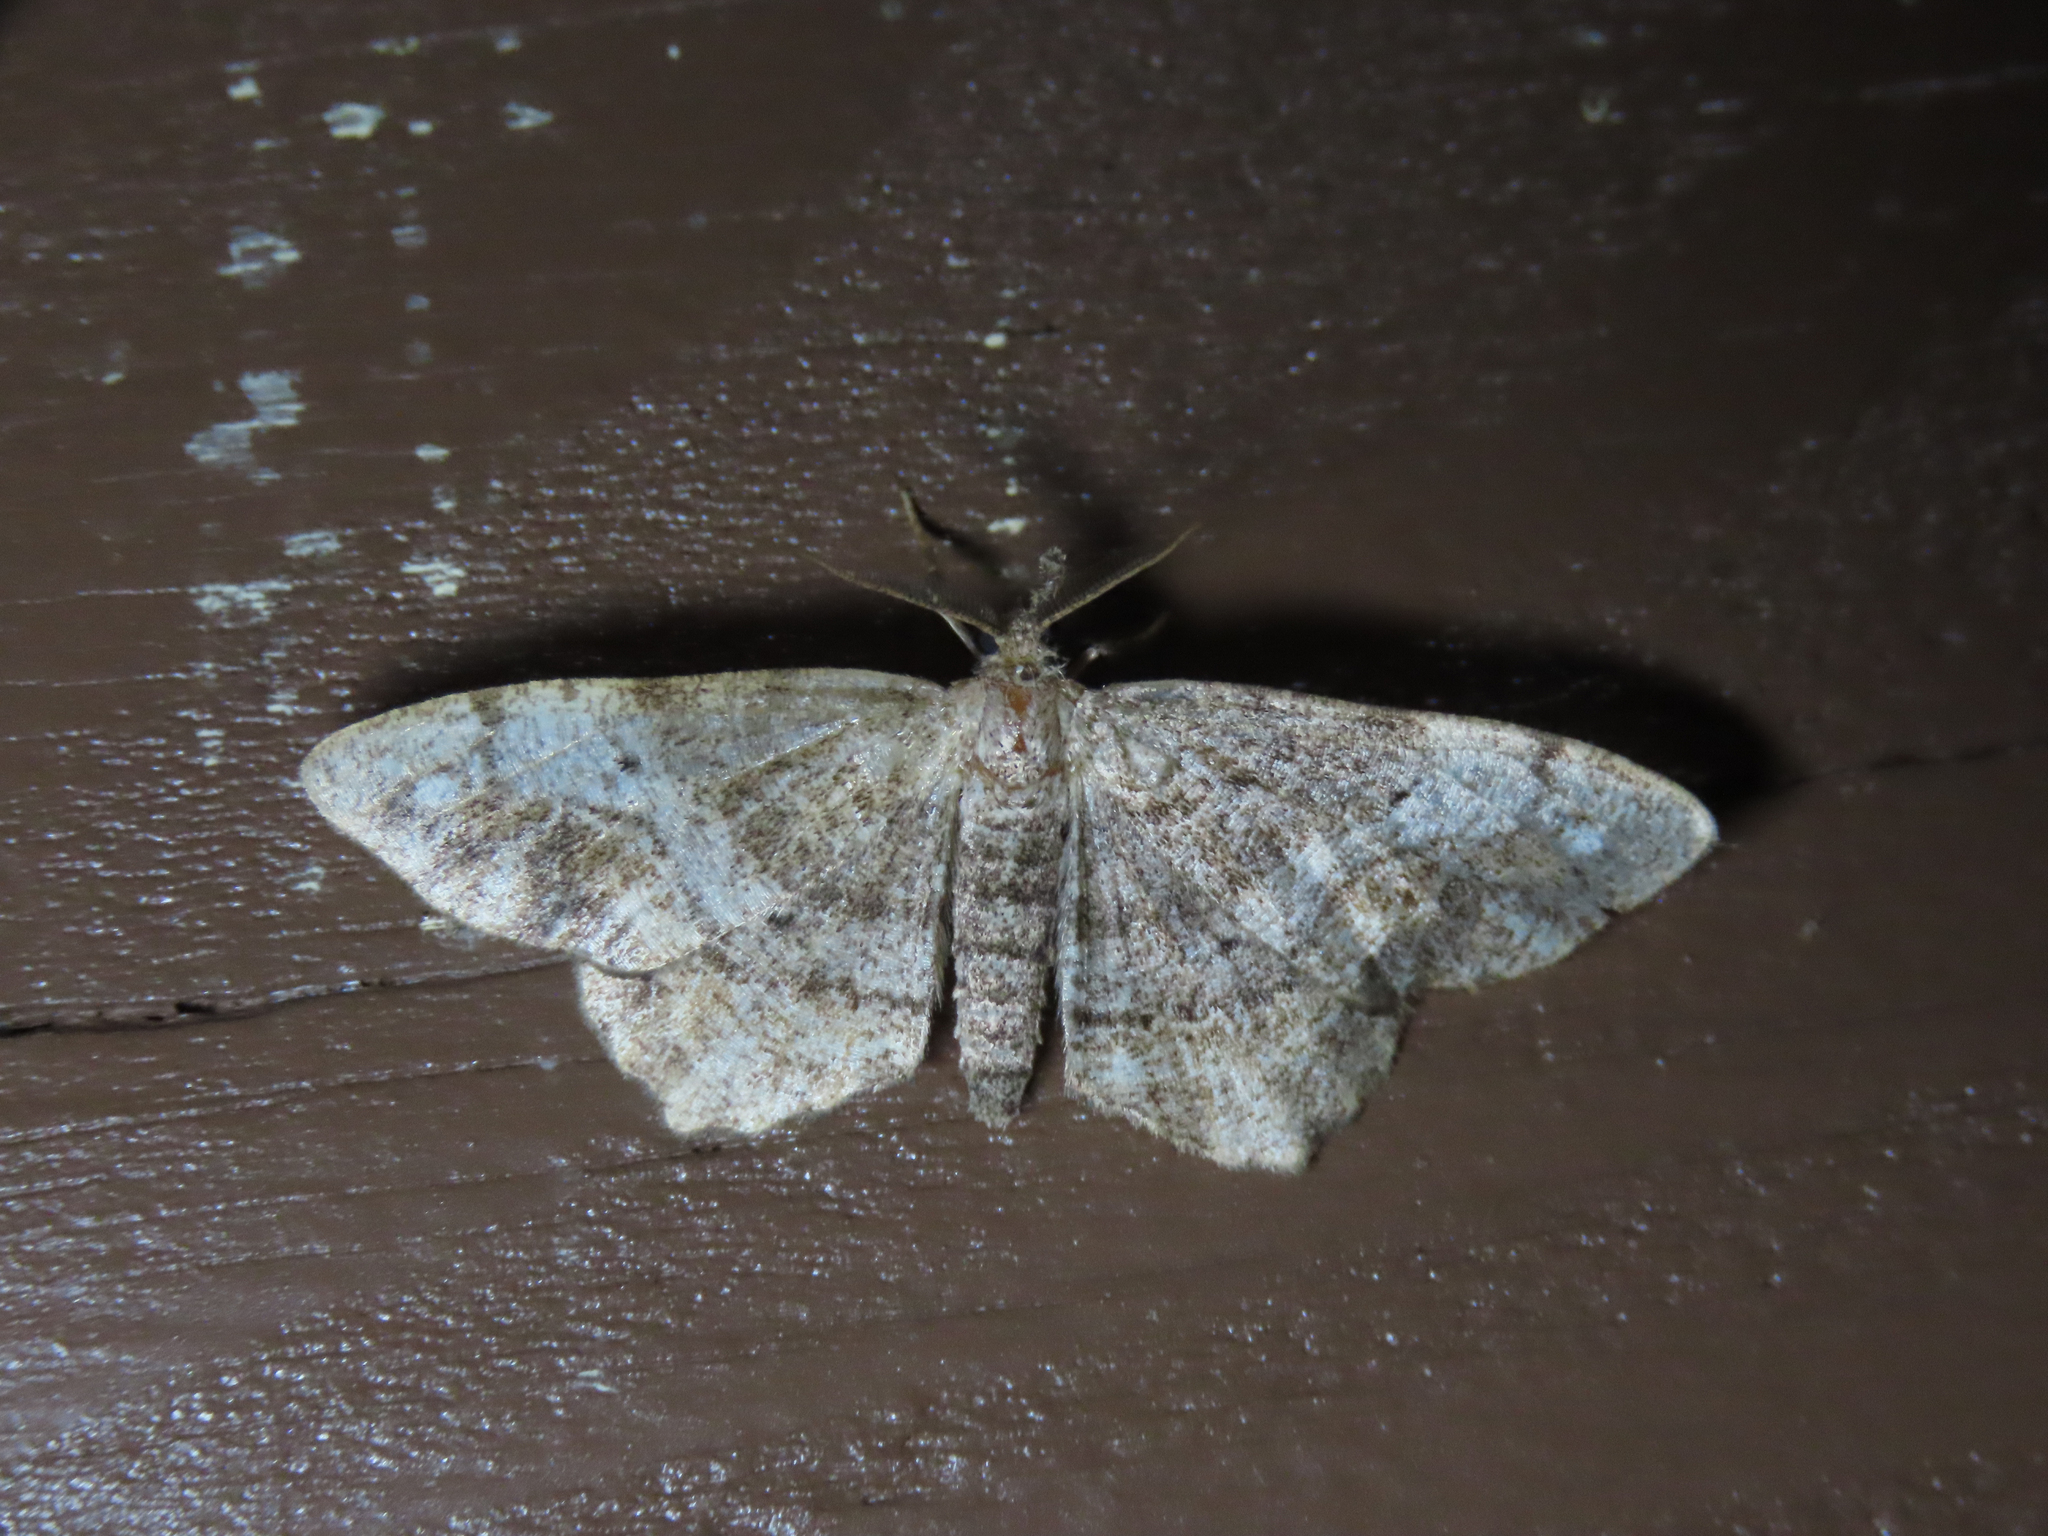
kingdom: Animalia
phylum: Arthropoda
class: Insecta
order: Lepidoptera
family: Geometridae
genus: Hypagyrtis
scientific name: Hypagyrtis unipunctata
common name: One-spotted variant
